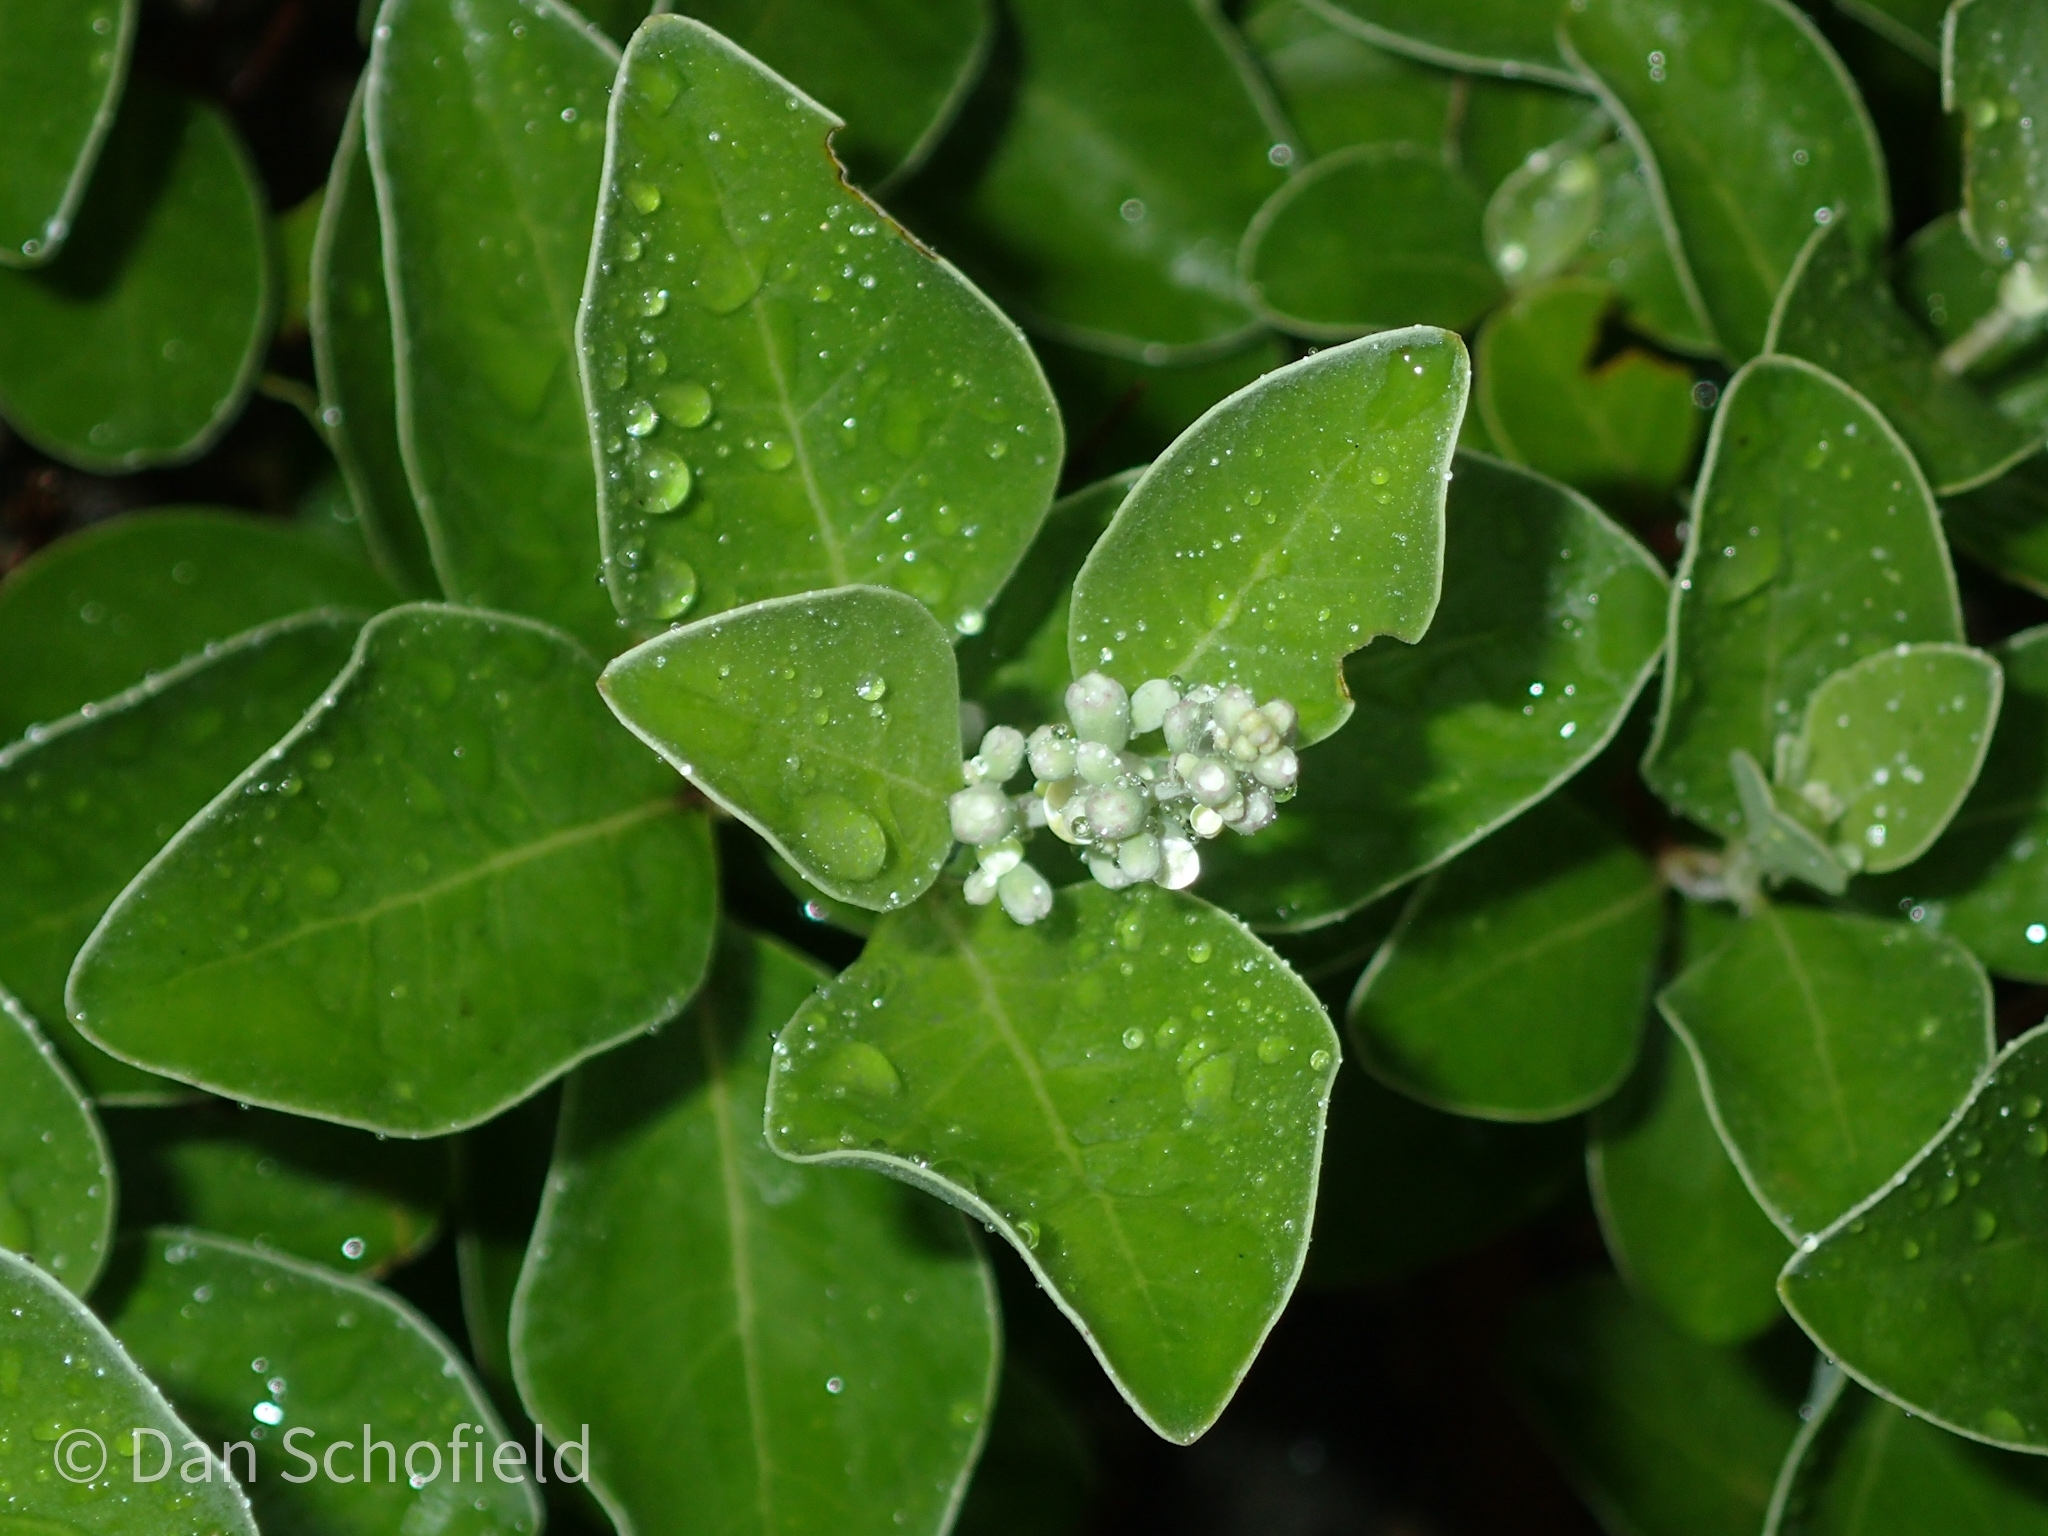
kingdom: Plantae
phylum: Tracheophyta
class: Magnoliopsida
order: Lamiales
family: Lamiaceae
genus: Vitex
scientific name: Vitex rotundifolia
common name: Beach vitex
